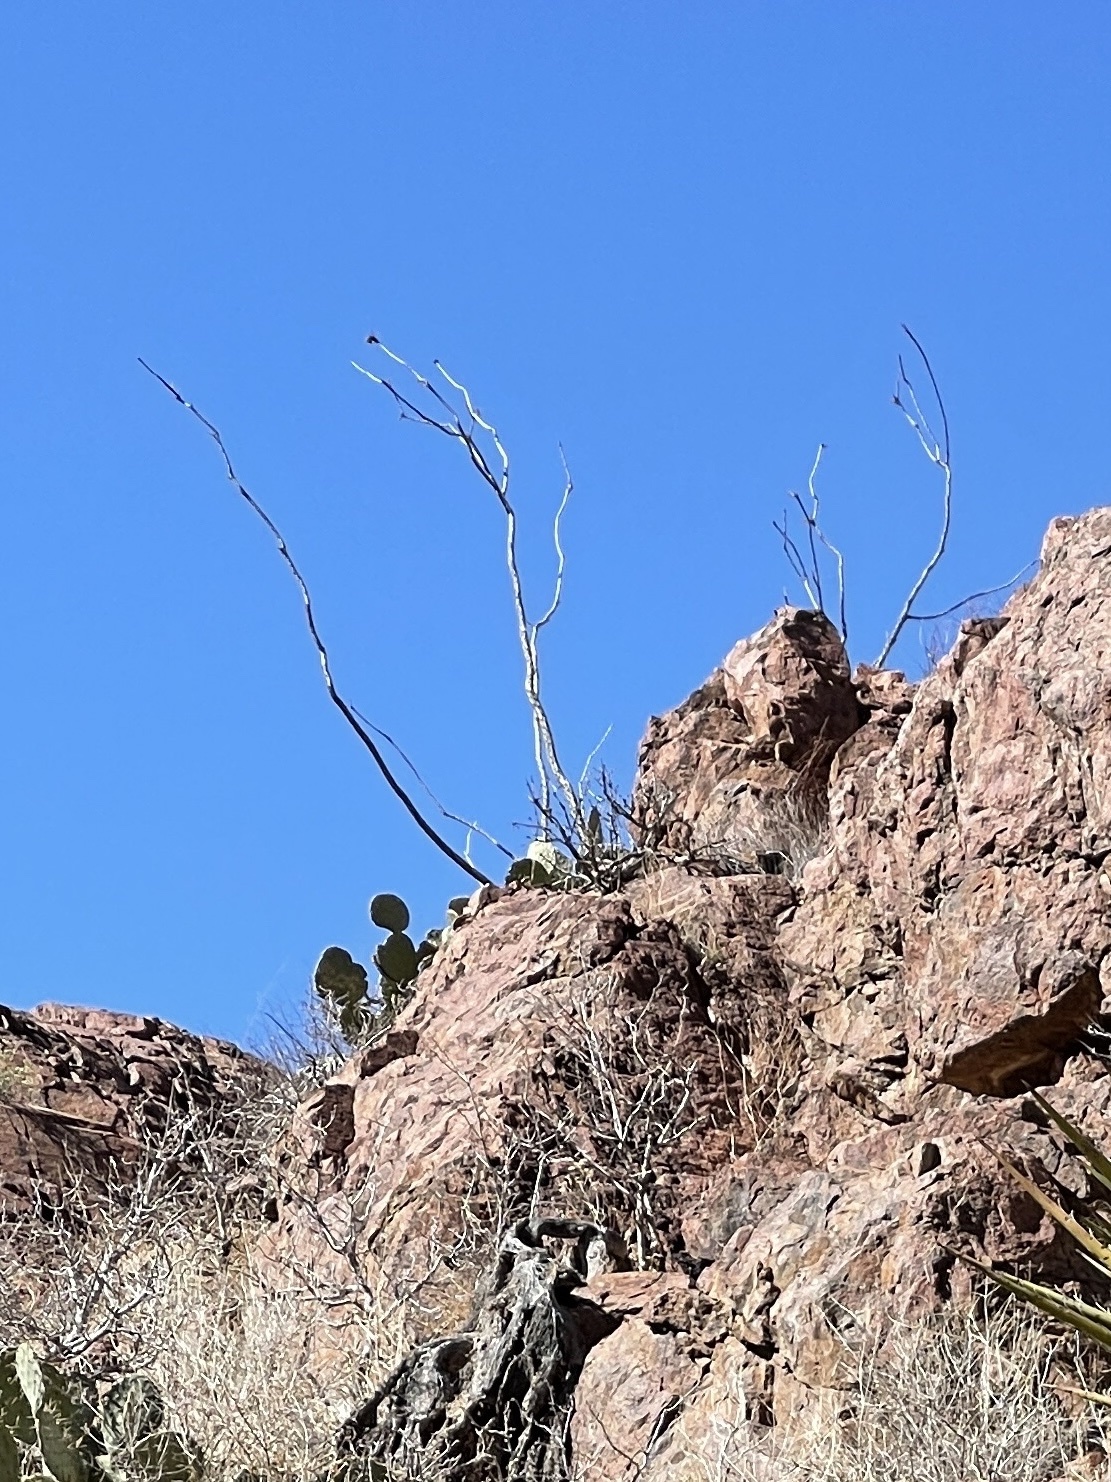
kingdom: Plantae
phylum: Tracheophyta
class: Magnoliopsida
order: Ericales
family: Fouquieriaceae
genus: Fouquieria
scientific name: Fouquieria splendens
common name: Vine-cactus
